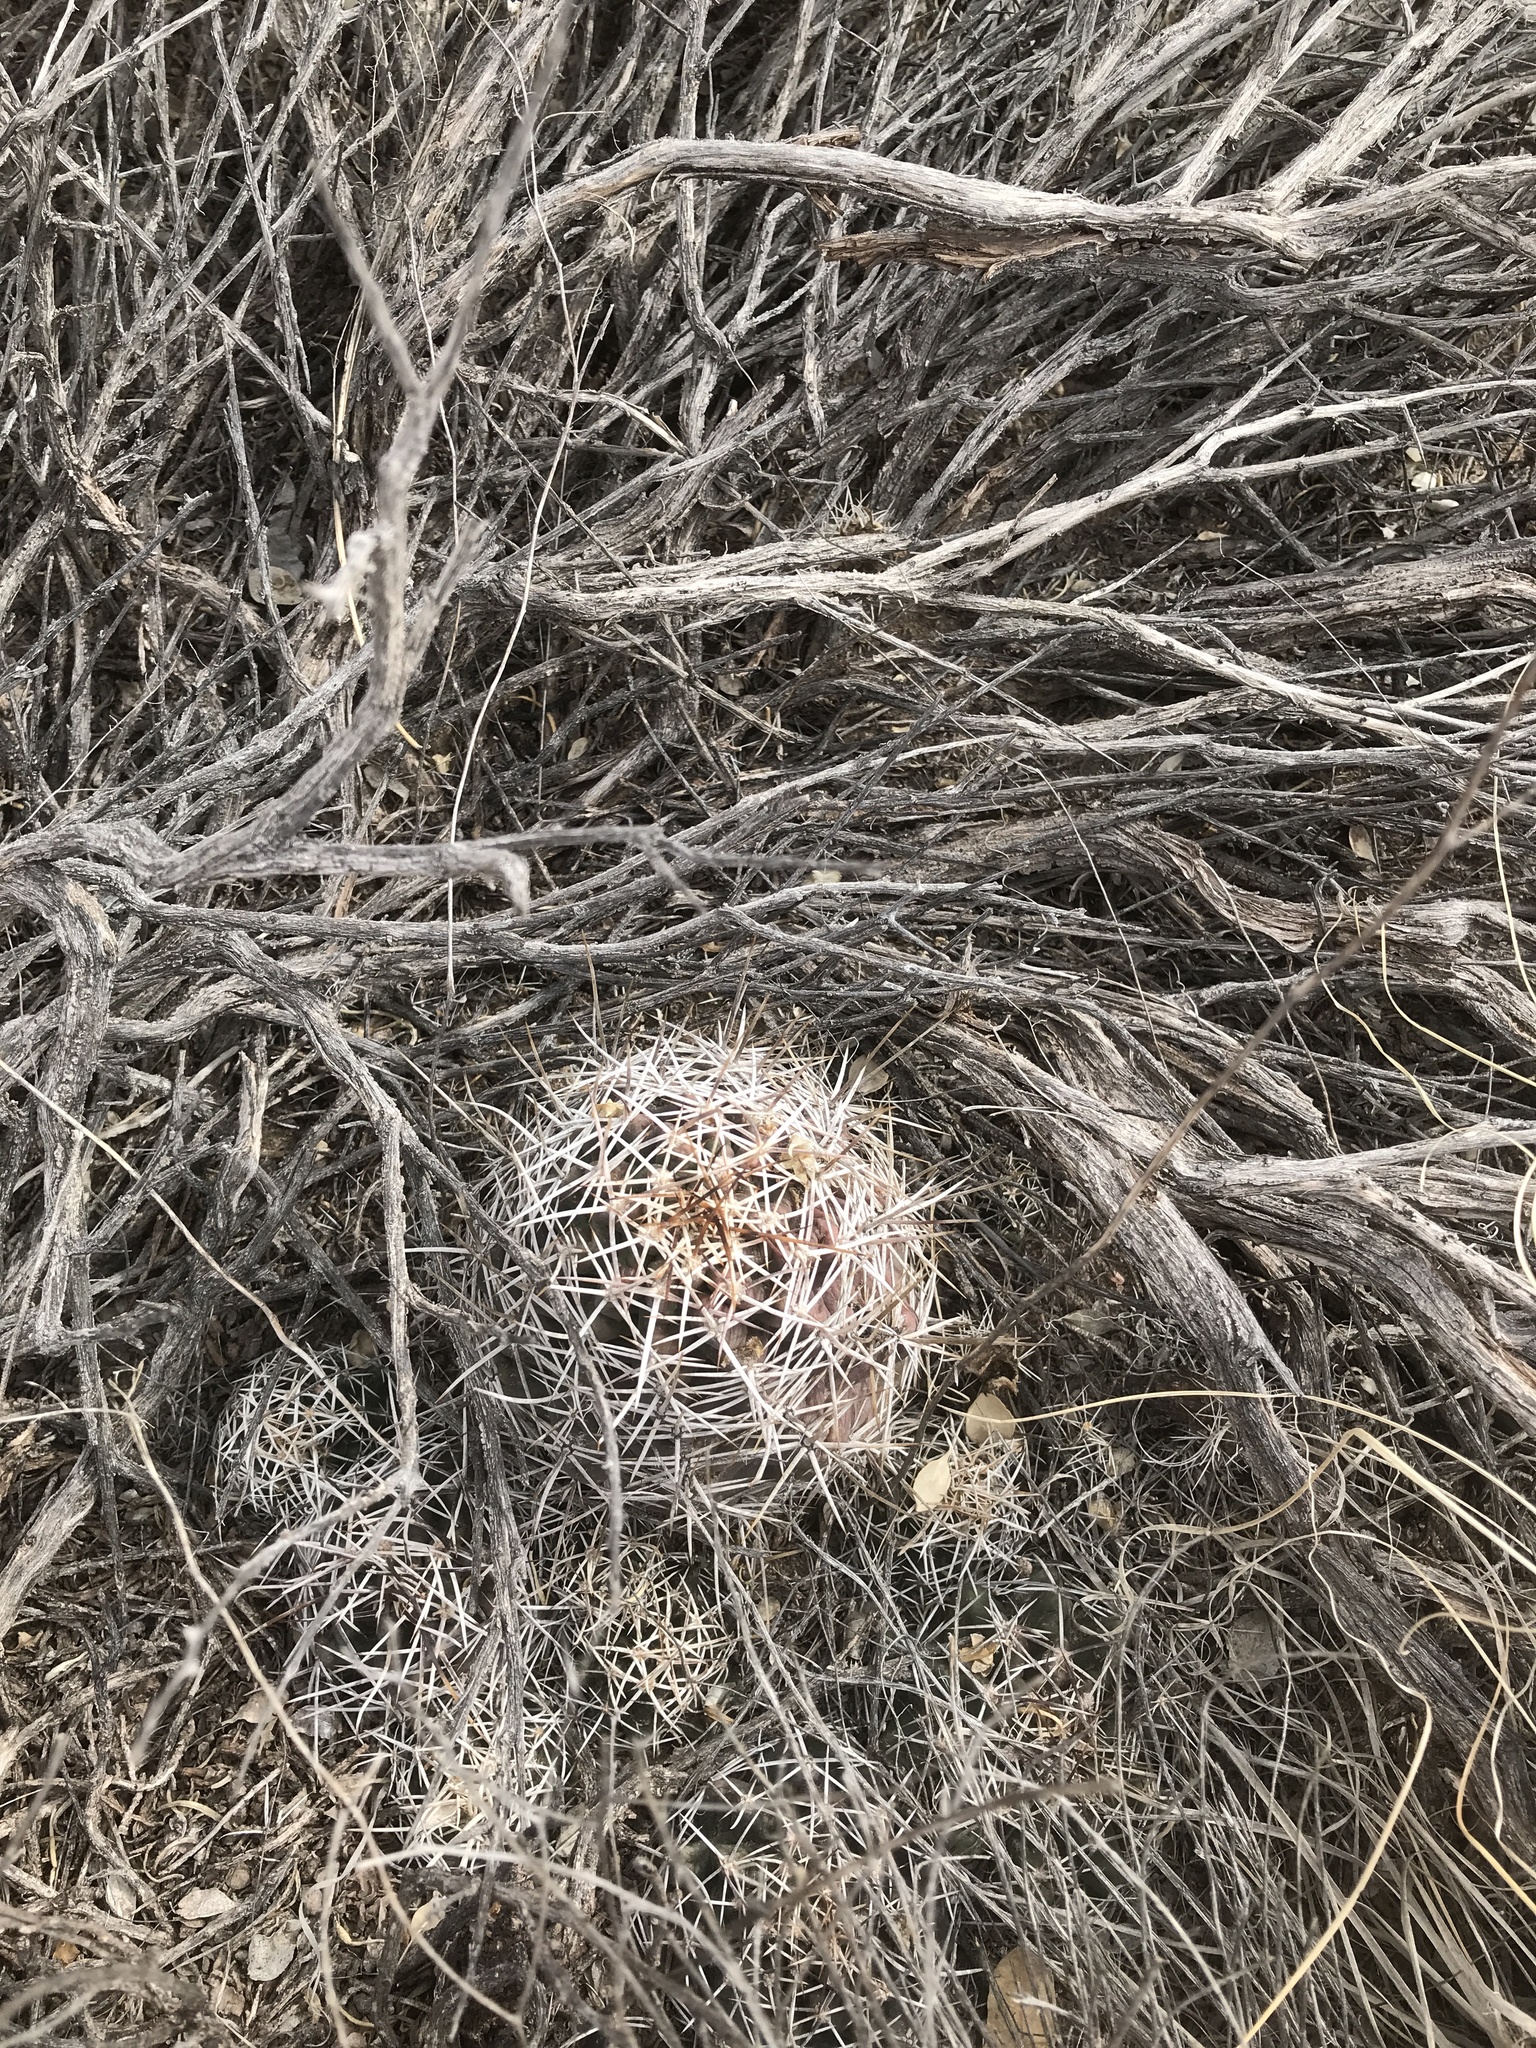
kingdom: Plantae
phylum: Tracheophyta
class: Magnoliopsida
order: Caryophyllales
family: Cactaceae
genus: Echinocereus
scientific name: Echinocereus fendleri
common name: Fendler's hedgehog cactus
